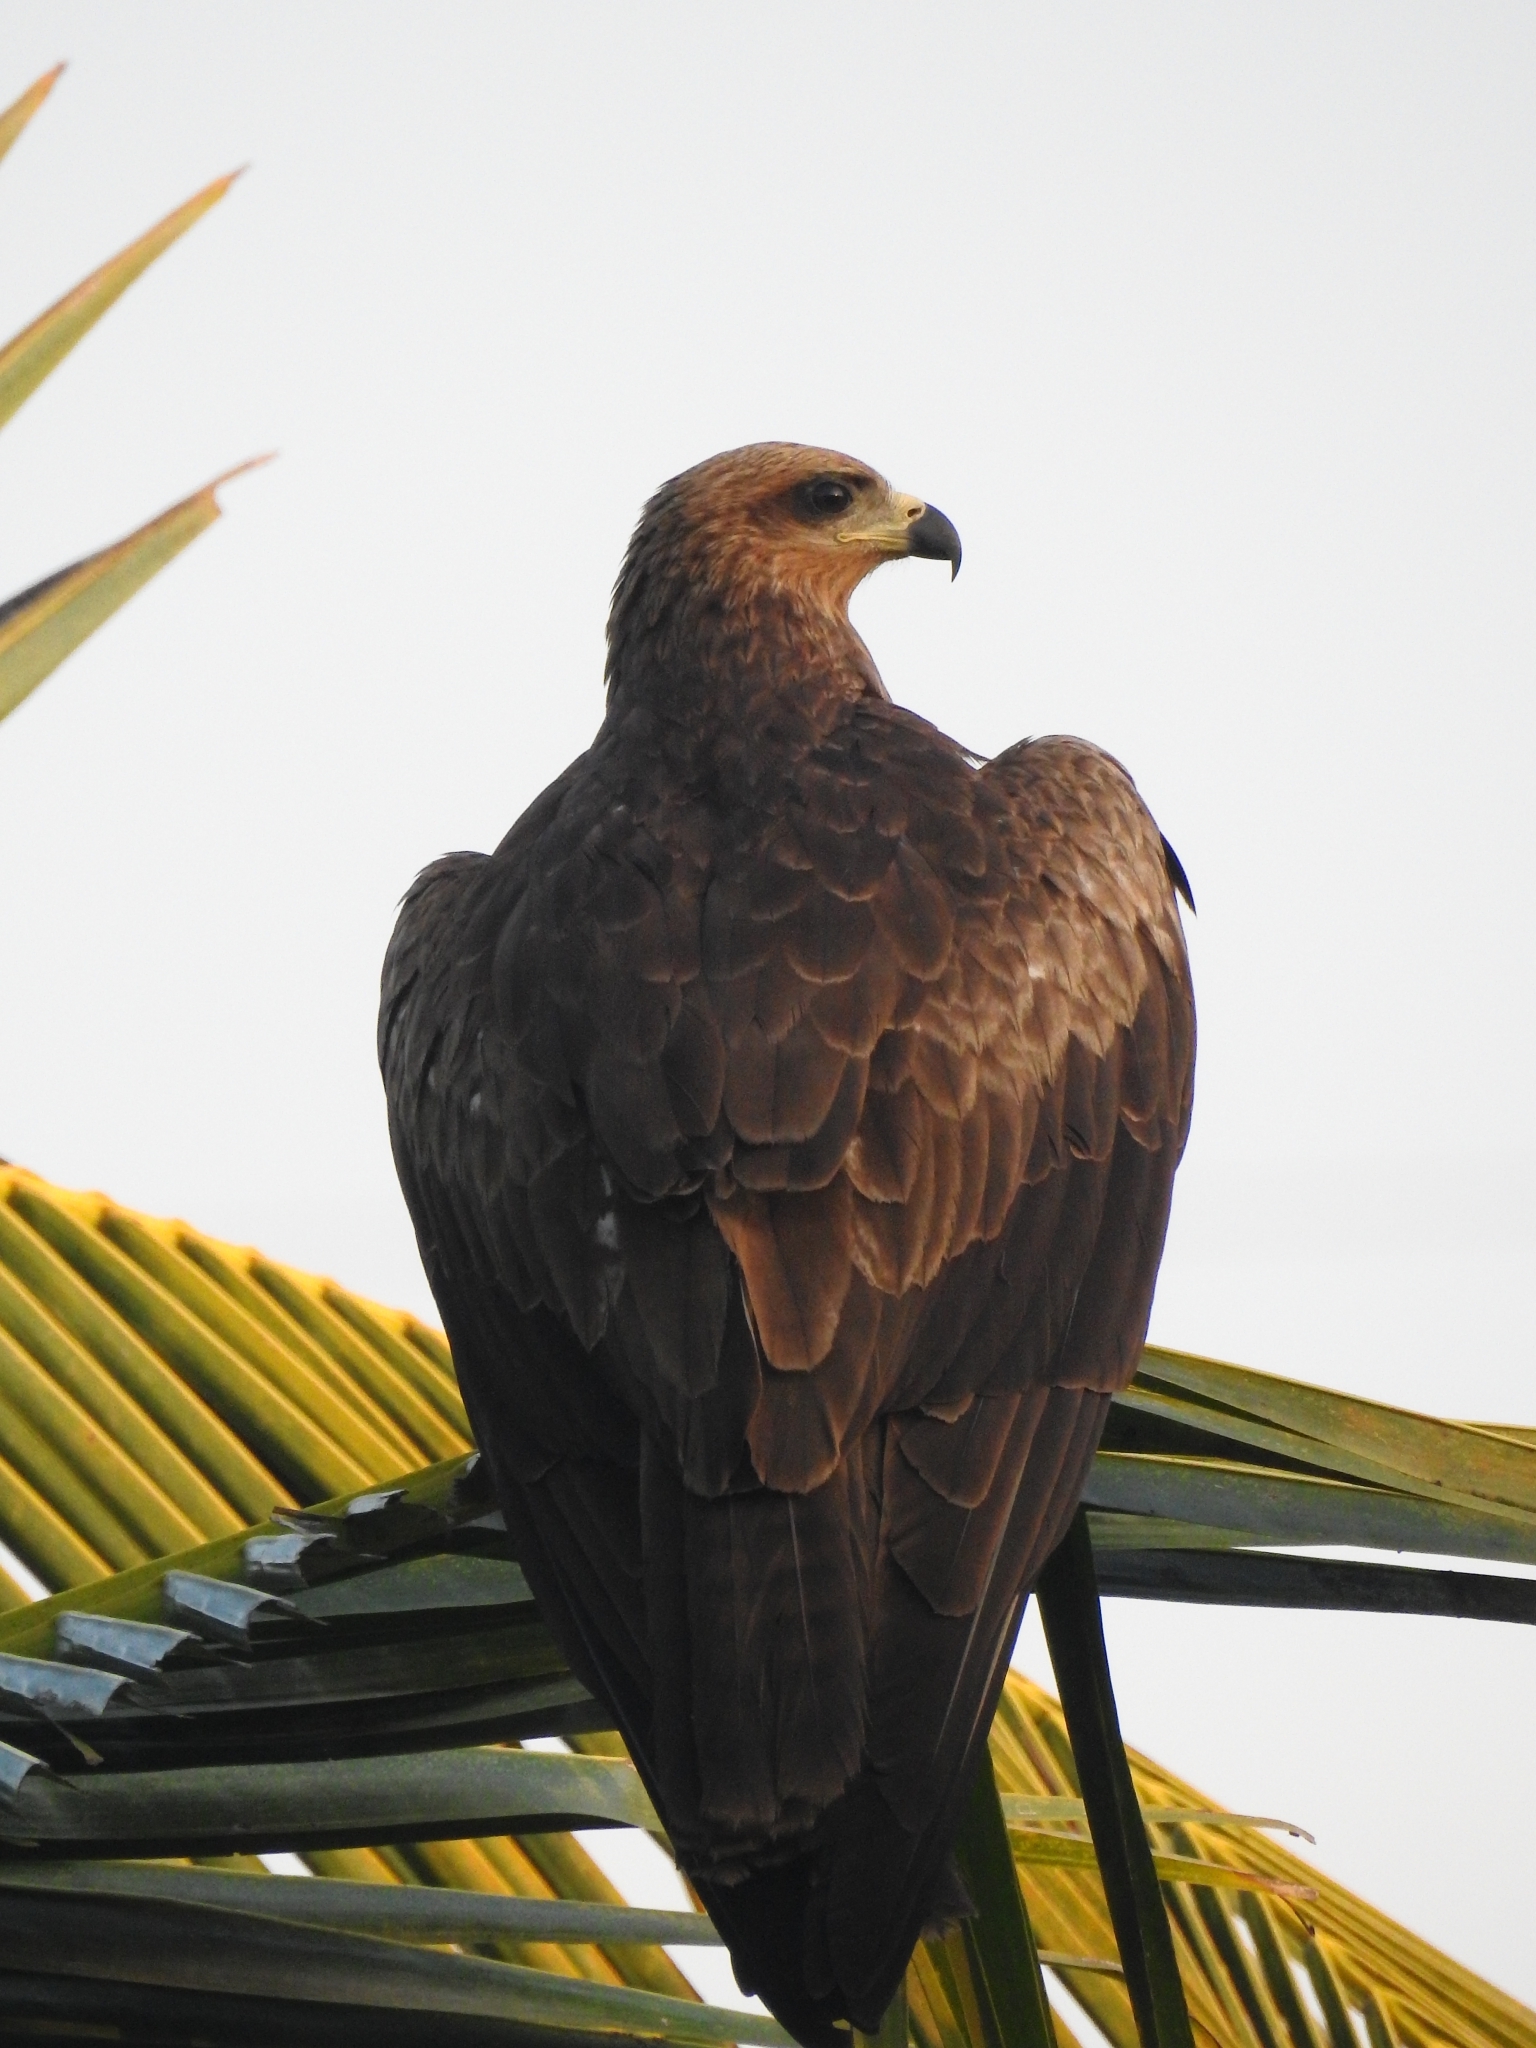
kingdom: Animalia
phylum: Chordata
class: Aves
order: Accipitriformes
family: Accipitridae
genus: Milvus
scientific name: Milvus migrans
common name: Black kite
